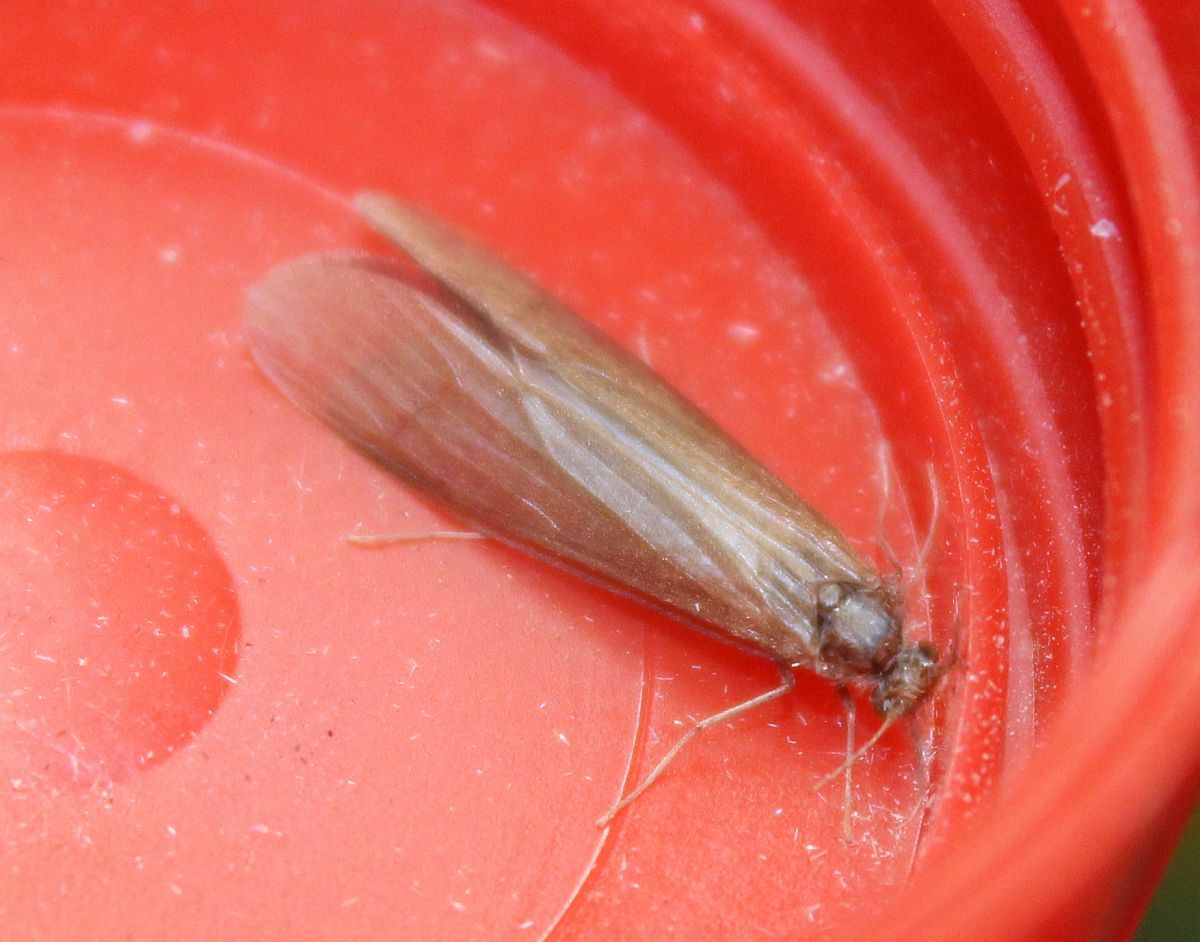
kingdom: Animalia
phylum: Arthropoda
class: Insecta
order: Trichoptera
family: Leptoceridae
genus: Oecetis
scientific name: Oecetis ochracea
